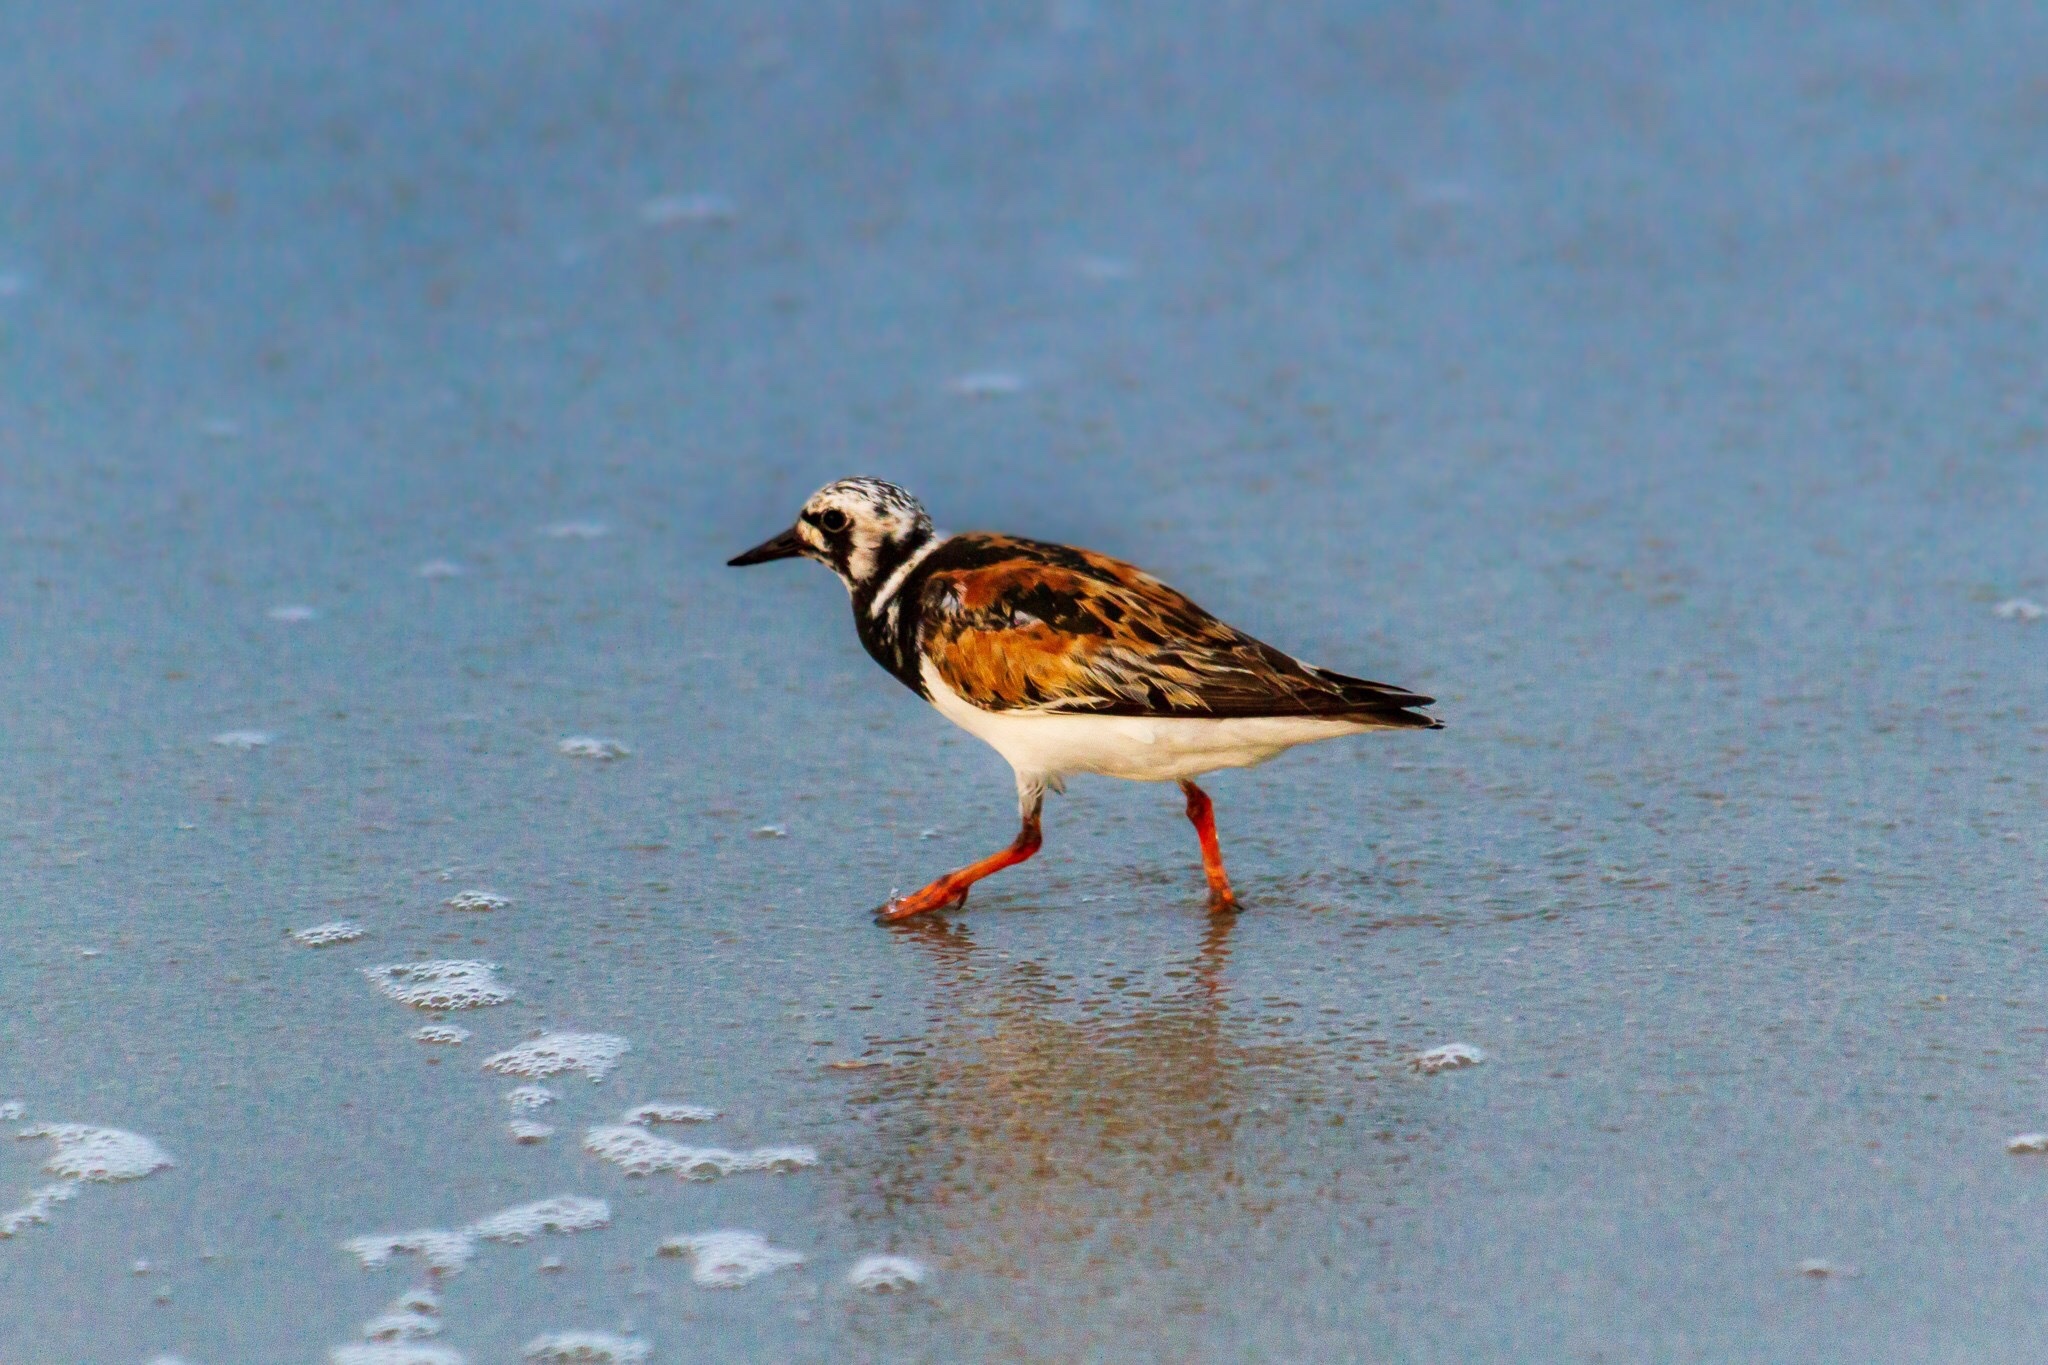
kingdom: Animalia
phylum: Chordata
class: Aves
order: Charadriiformes
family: Scolopacidae
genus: Arenaria
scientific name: Arenaria interpres
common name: Ruddy turnstone
